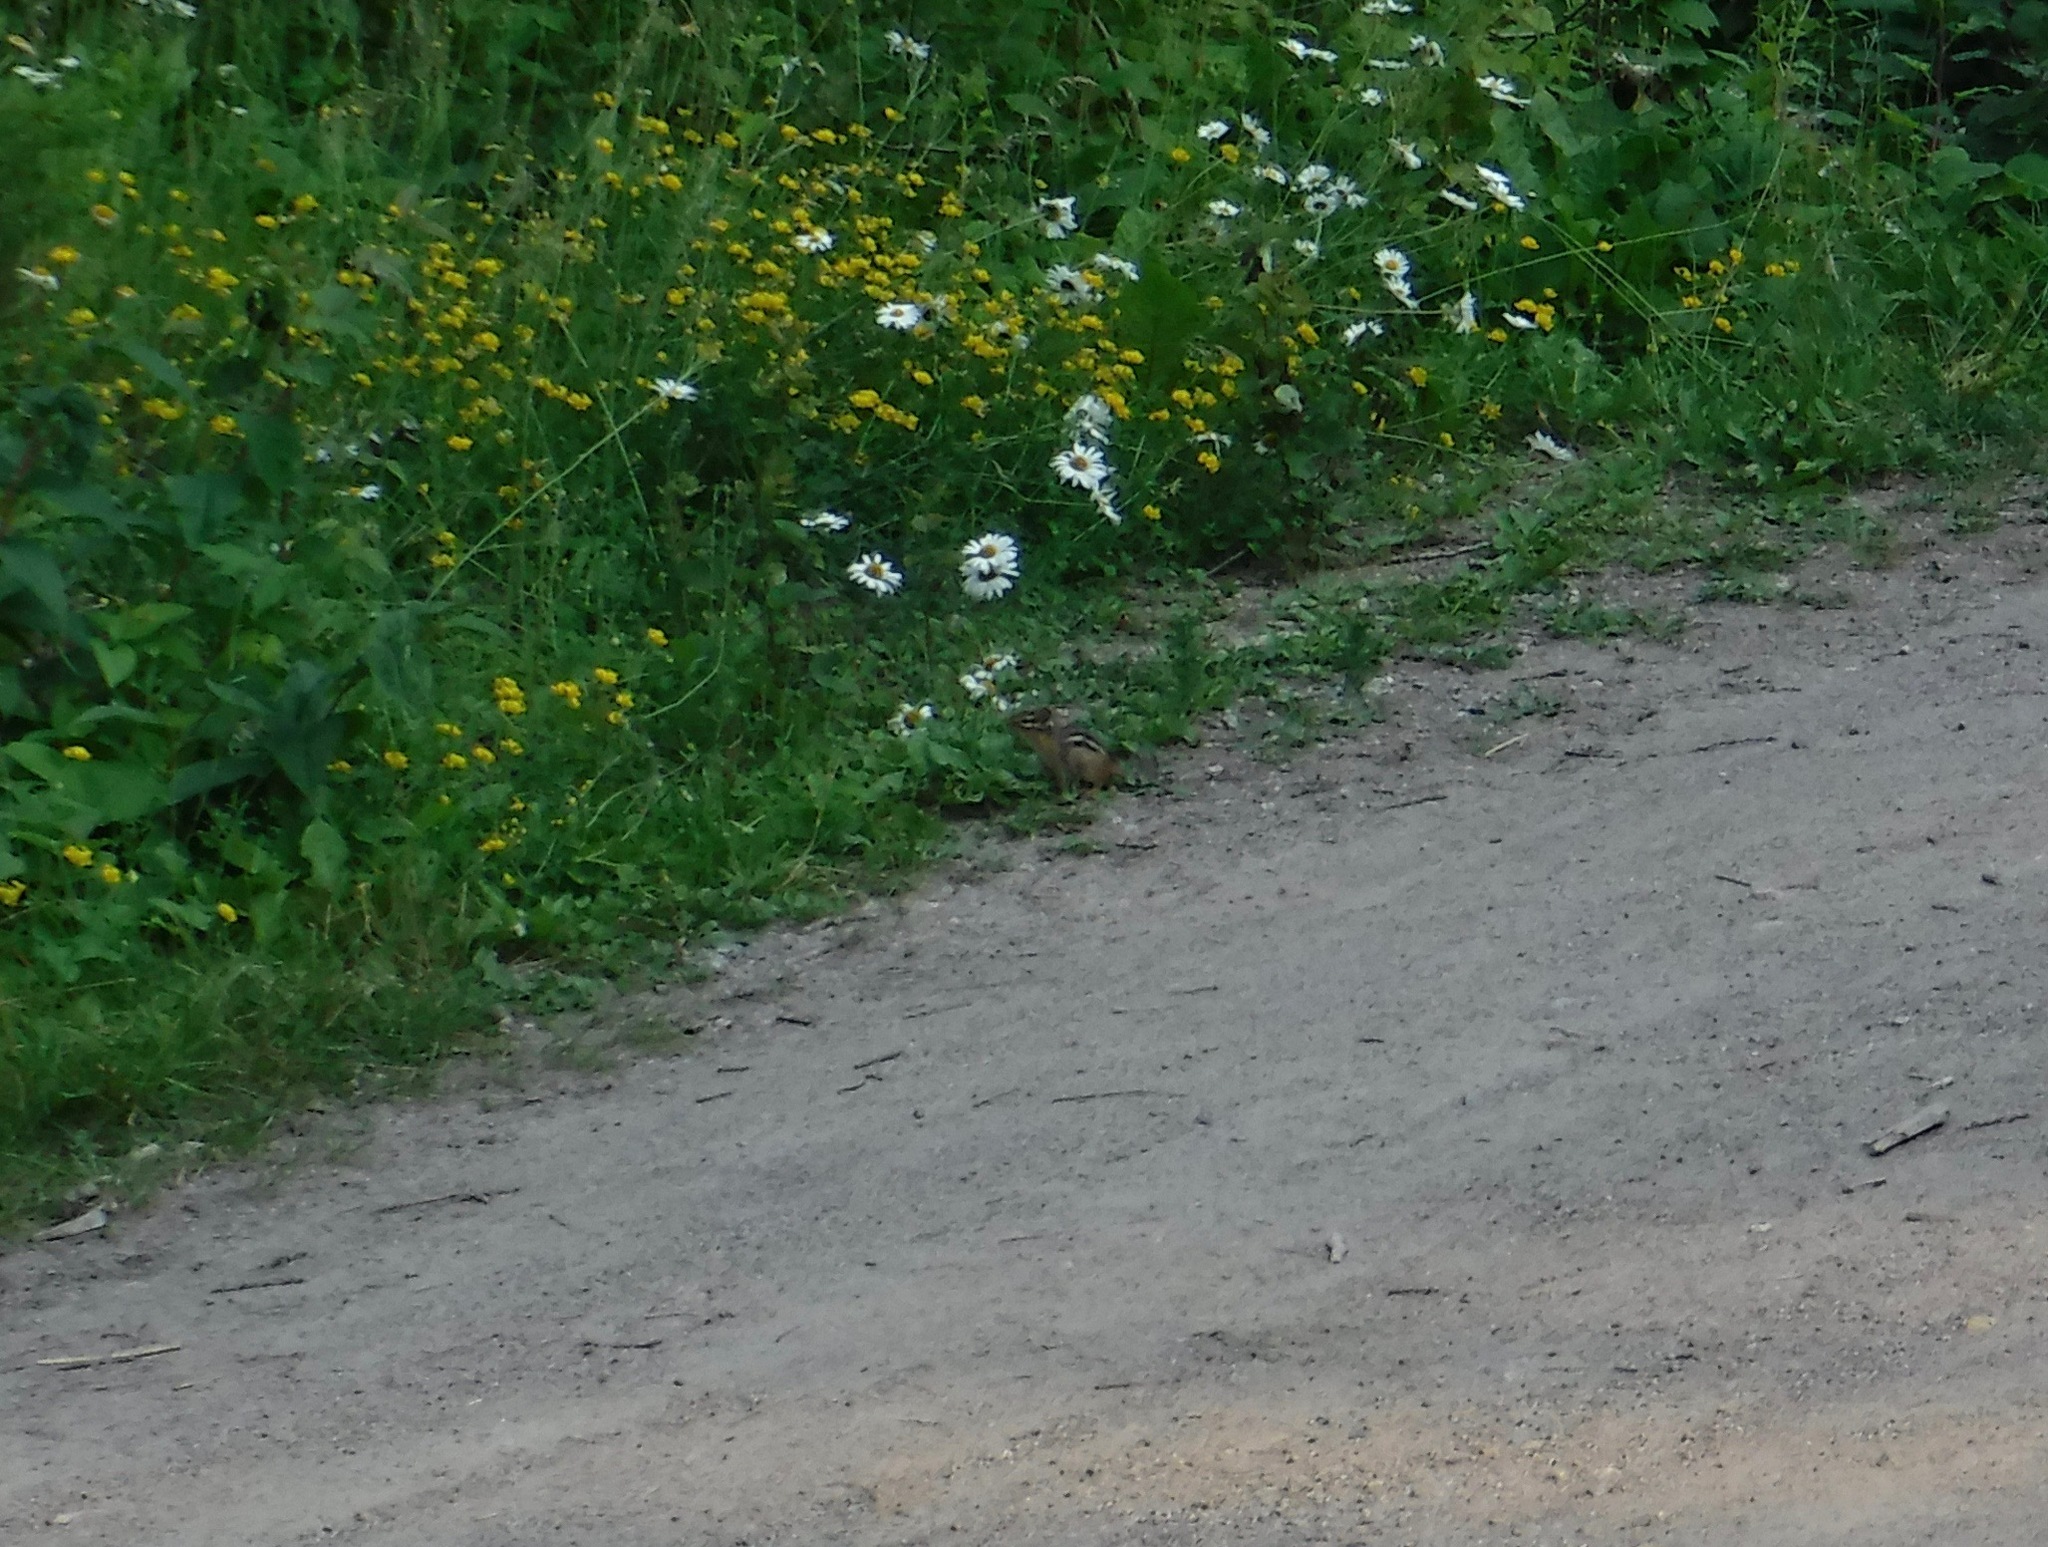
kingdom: Animalia
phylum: Chordata
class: Mammalia
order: Rodentia
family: Sciuridae
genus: Tamias
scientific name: Tamias striatus
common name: Eastern chipmunk
